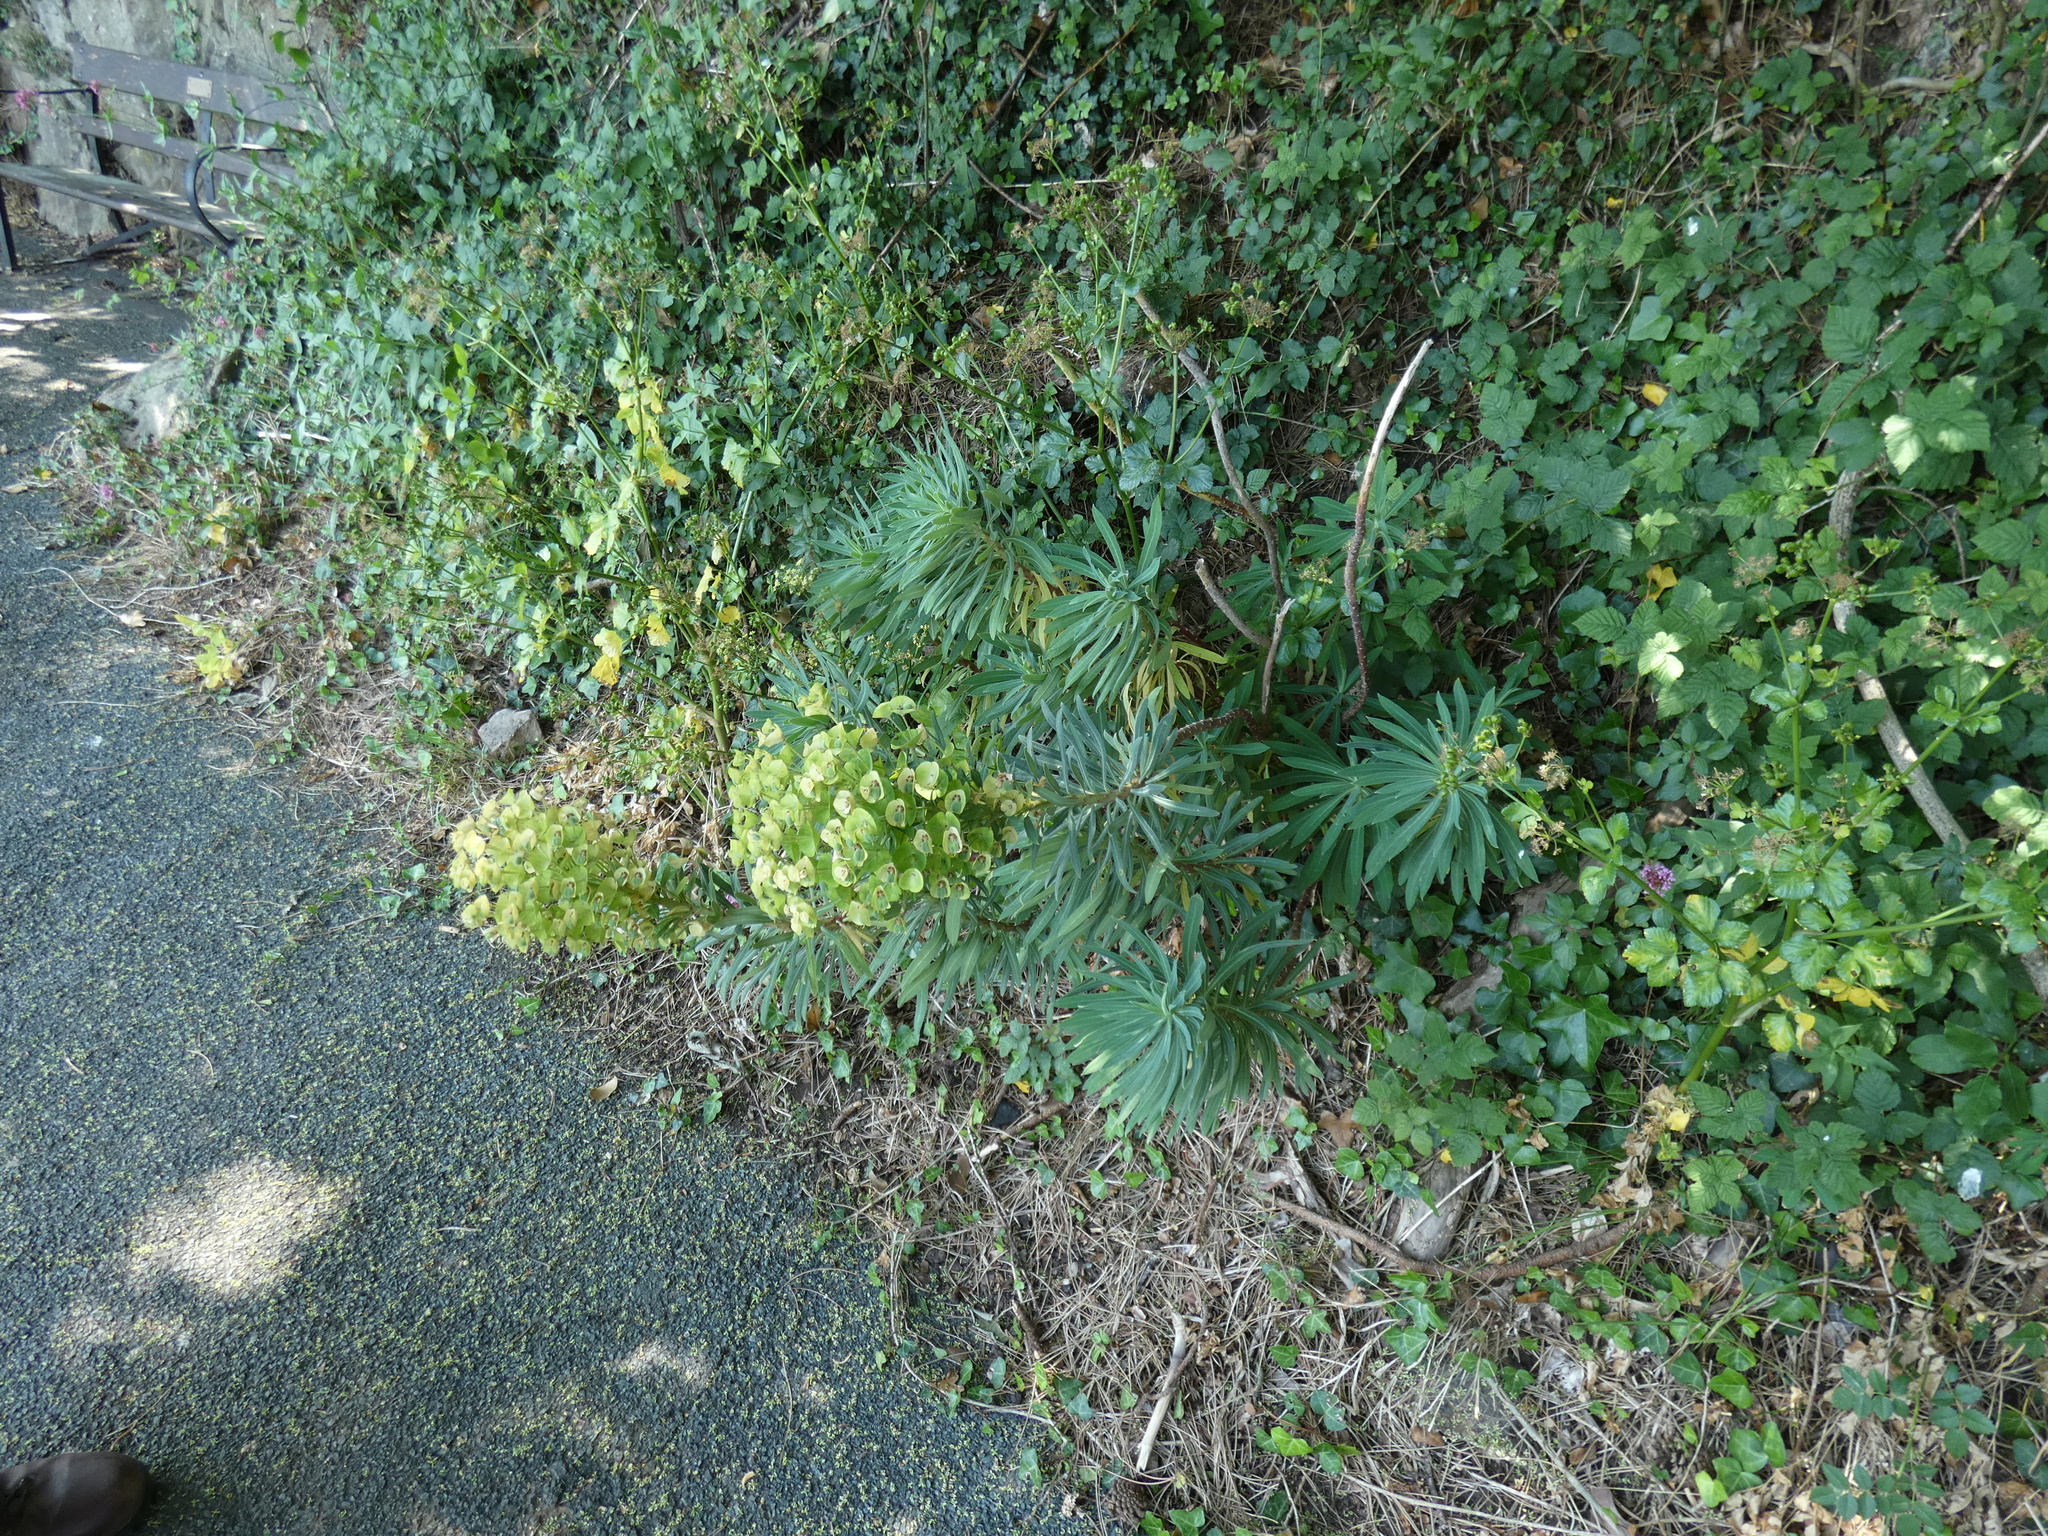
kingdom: Plantae
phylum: Tracheophyta
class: Magnoliopsida
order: Malpighiales
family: Euphorbiaceae
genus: Euphorbia
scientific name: Euphorbia characias
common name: Mediterranean spurge
